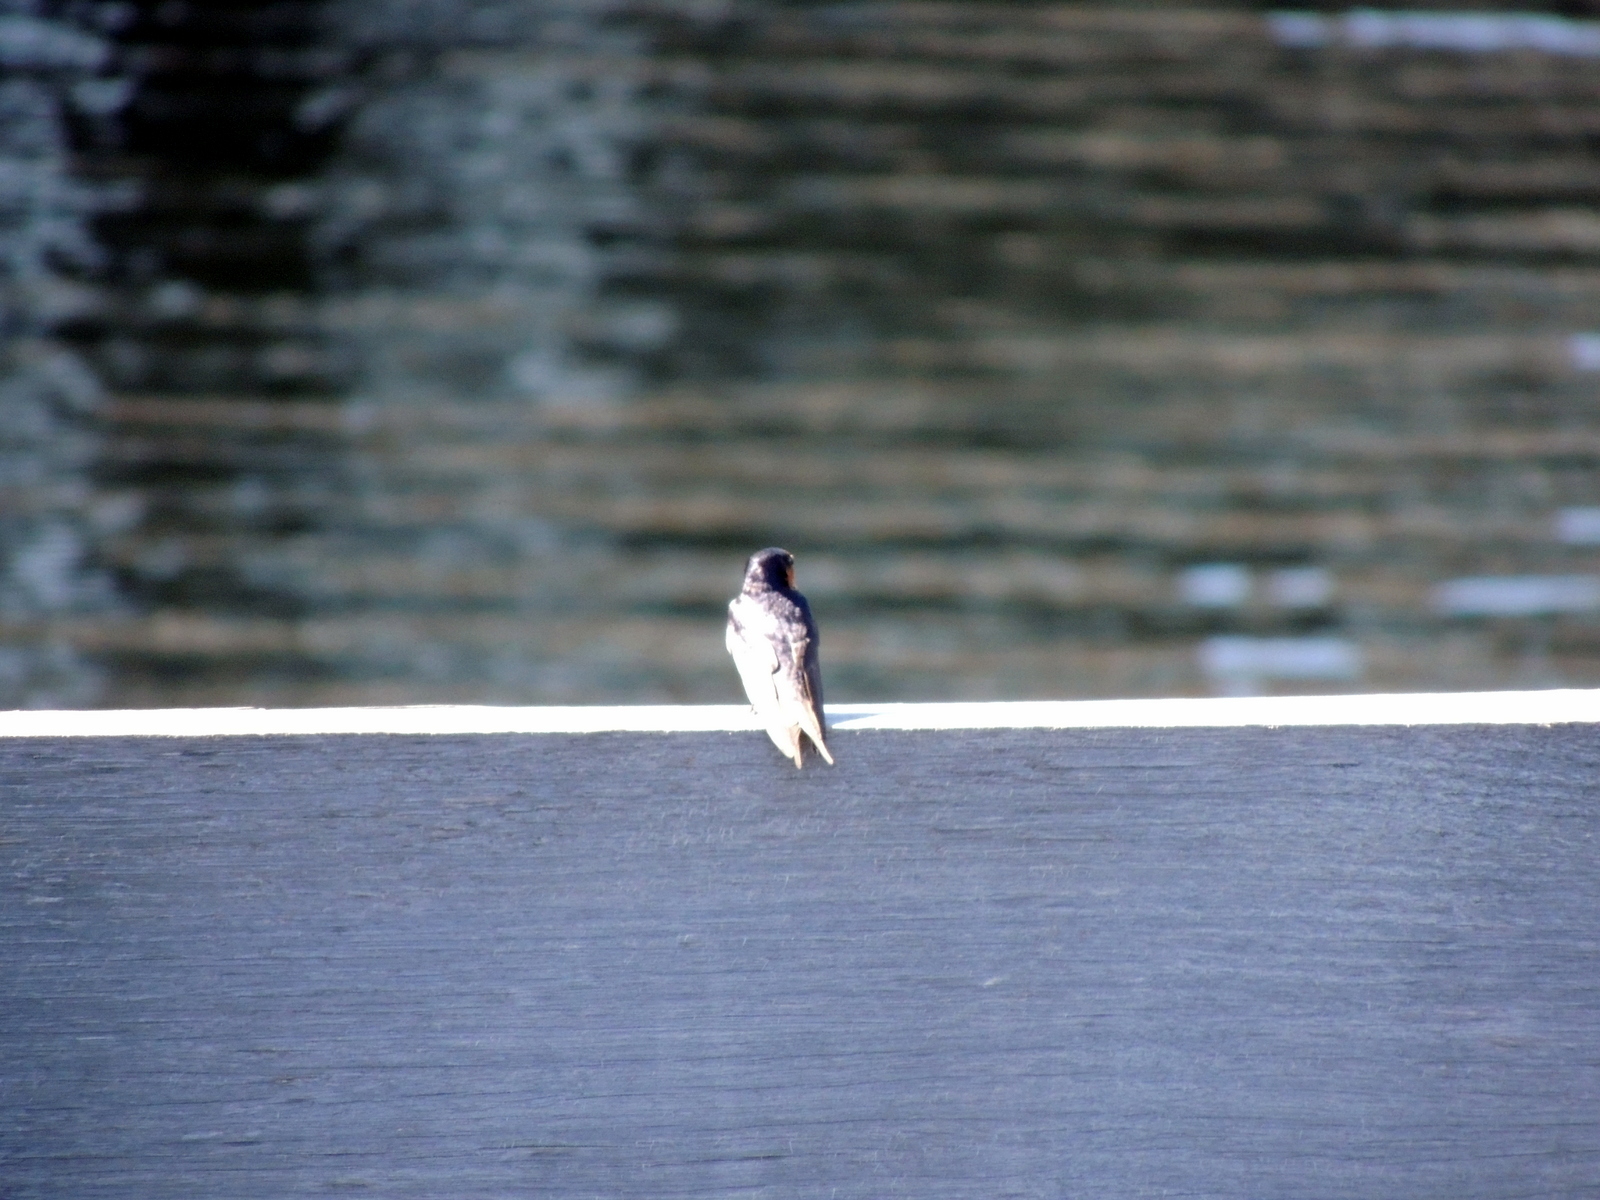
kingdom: Animalia
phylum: Chordata
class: Aves
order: Passeriformes
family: Hirundinidae
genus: Hirundo
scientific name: Hirundo neoxena
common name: Welcome swallow
